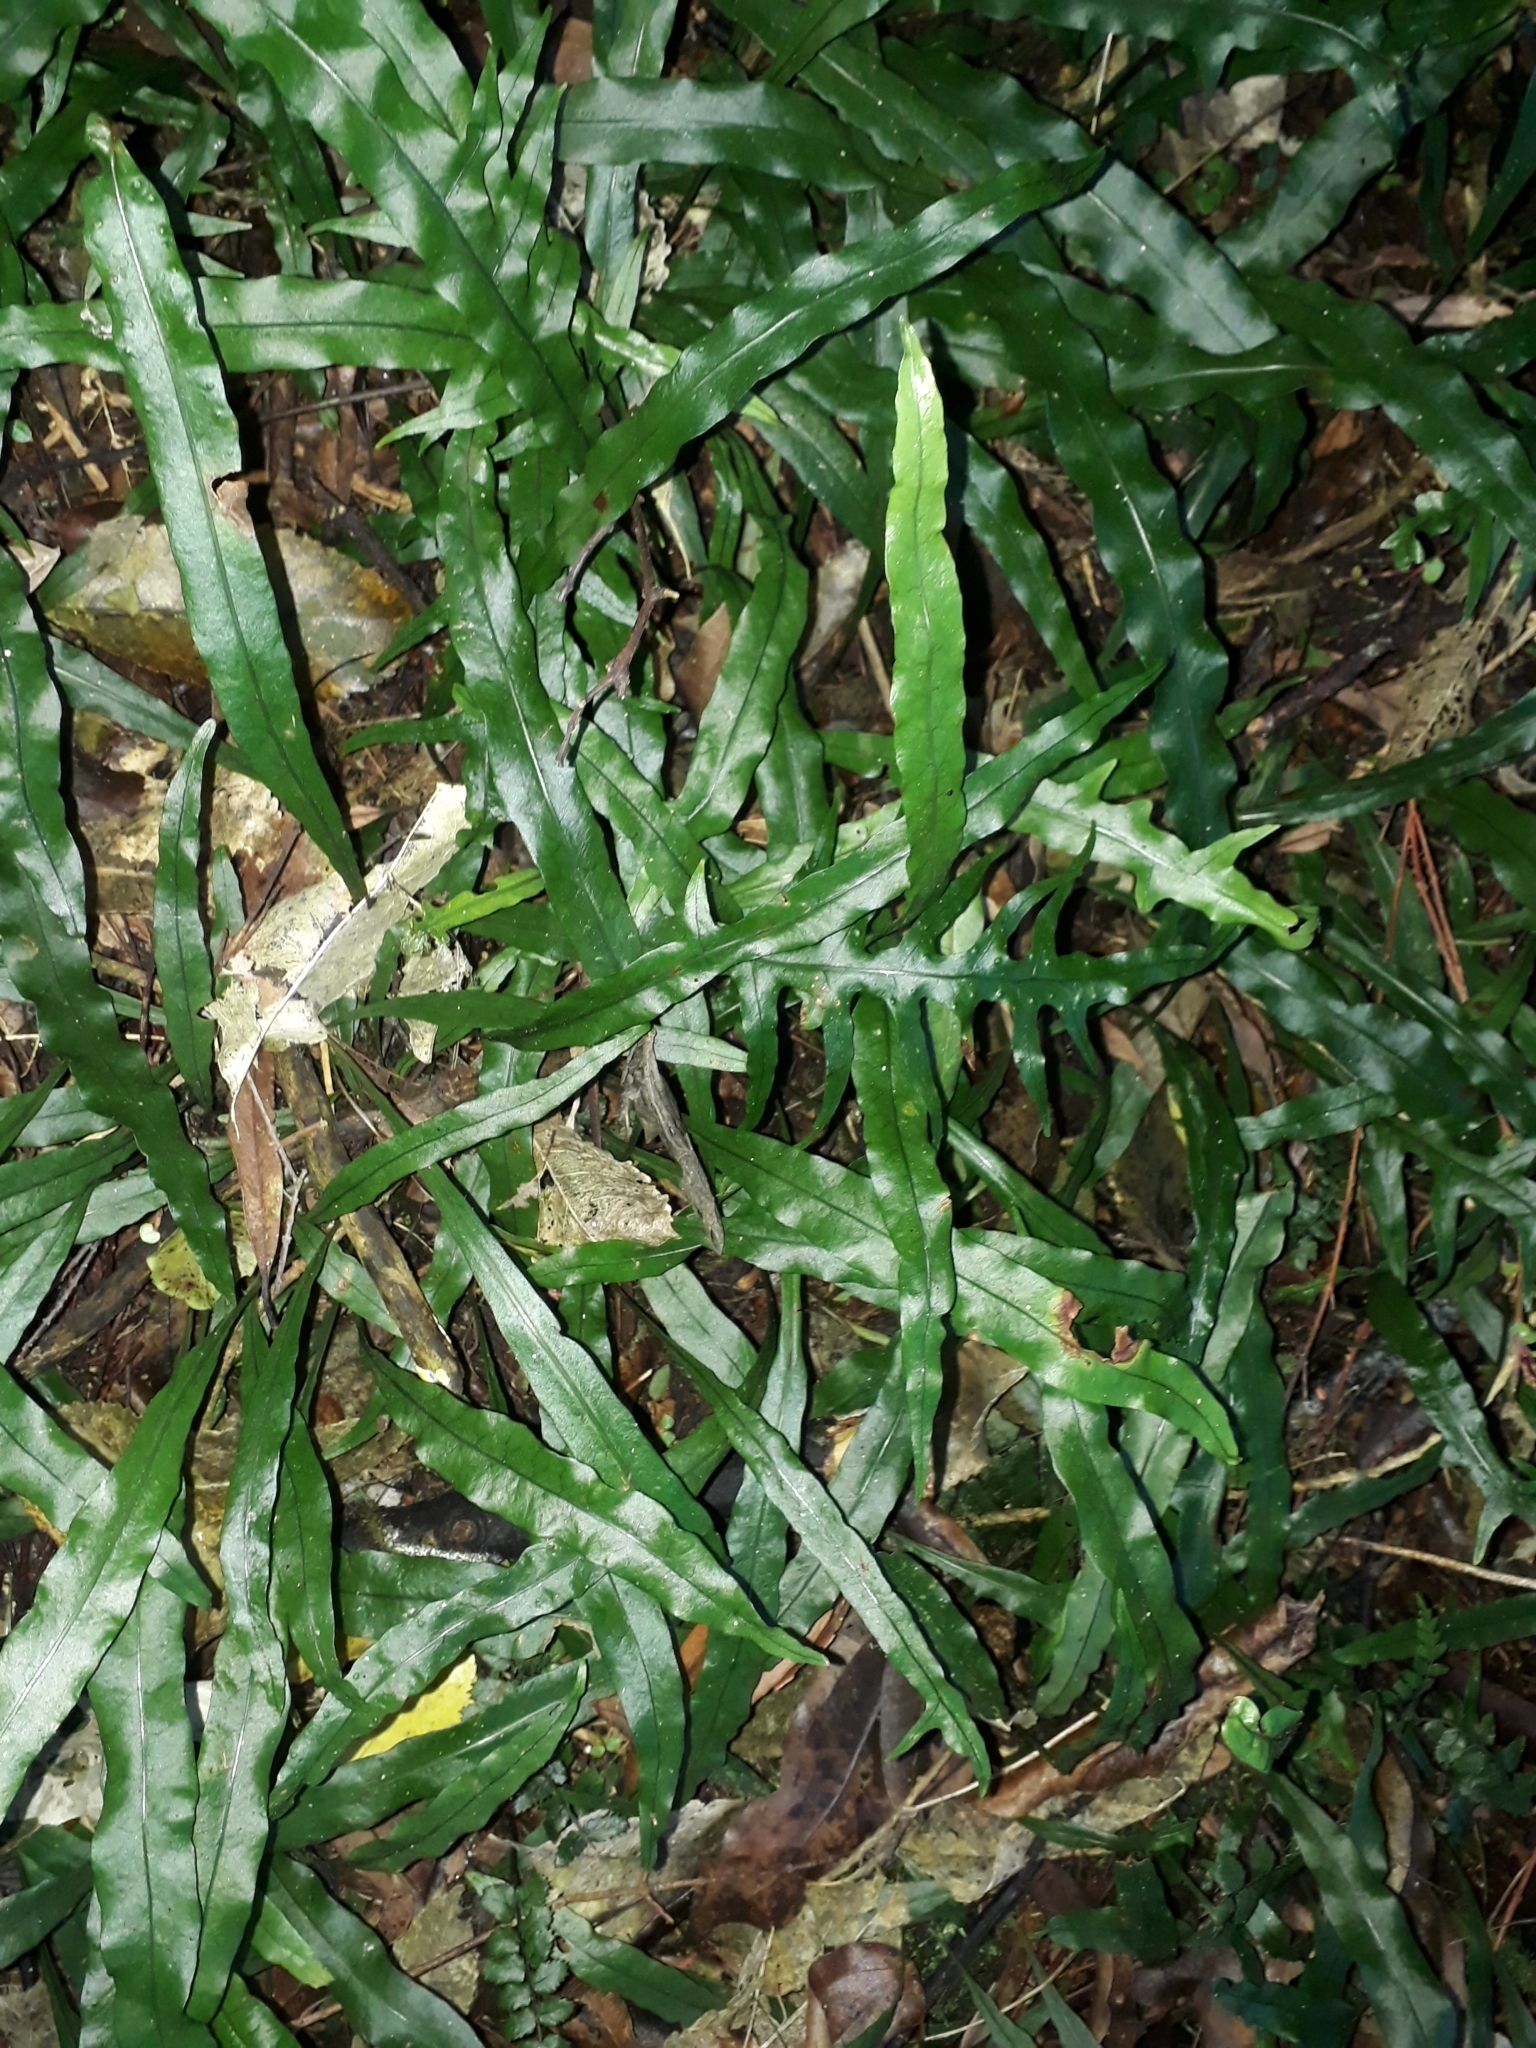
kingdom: Plantae
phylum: Tracheophyta
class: Polypodiopsida
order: Polypodiales
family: Polypodiaceae
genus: Lecanopteris
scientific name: Lecanopteris scandens
